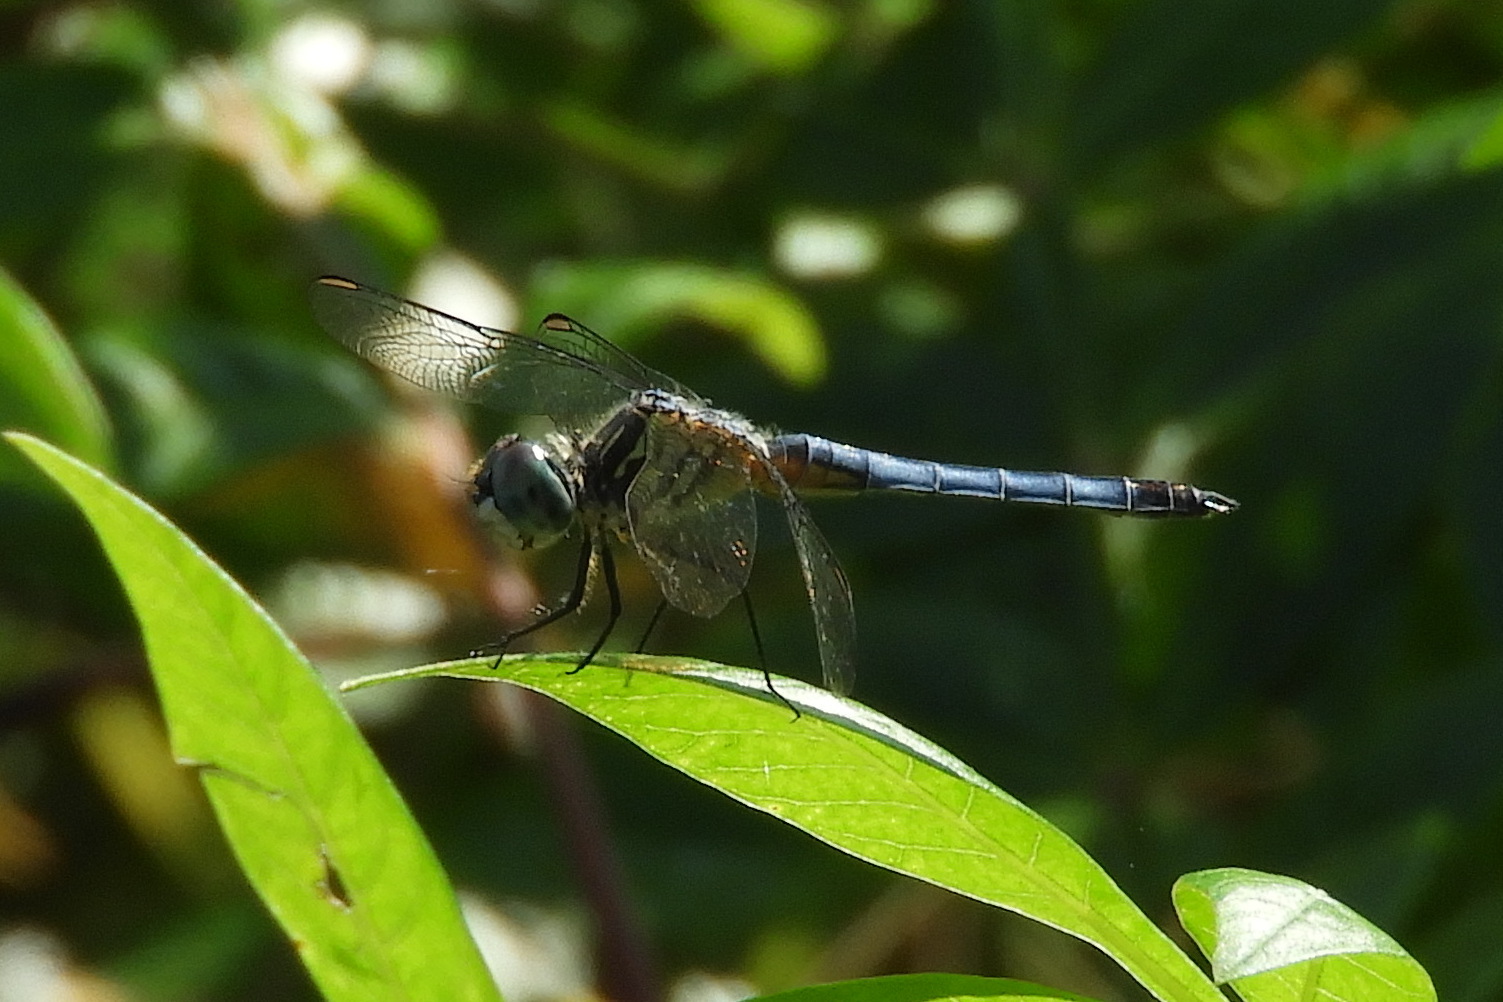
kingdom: Animalia
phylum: Arthropoda
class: Insecta
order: Odonata
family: Libellulidae
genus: Pachydiplax
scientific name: Pachydiplax longipennis
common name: Blue dasher
